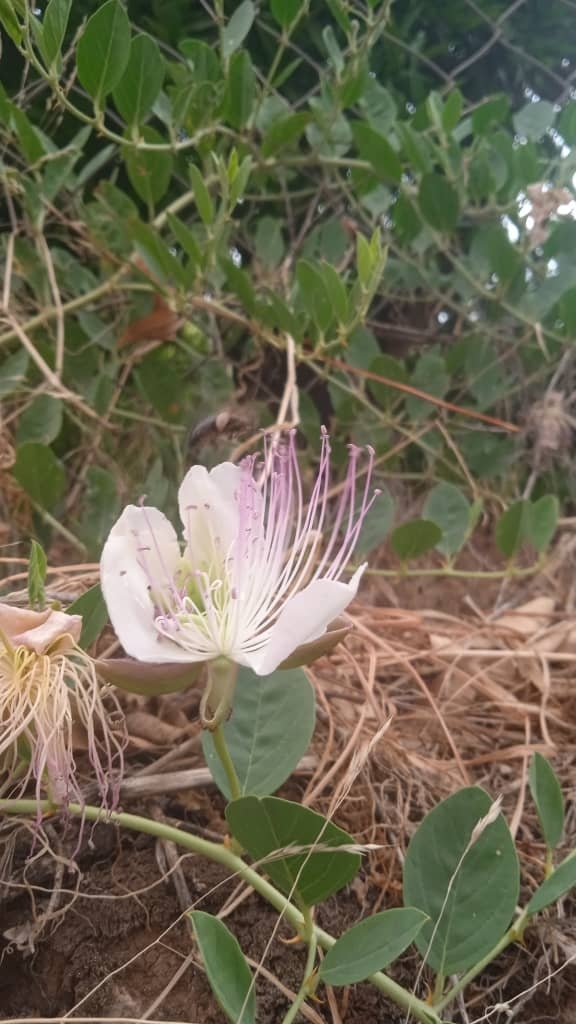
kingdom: Plantae
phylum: Tracheophyta
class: Magnoliopsida
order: Brassicales
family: Capparaceae
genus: Capparis
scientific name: Capparis spinosa
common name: Caper
